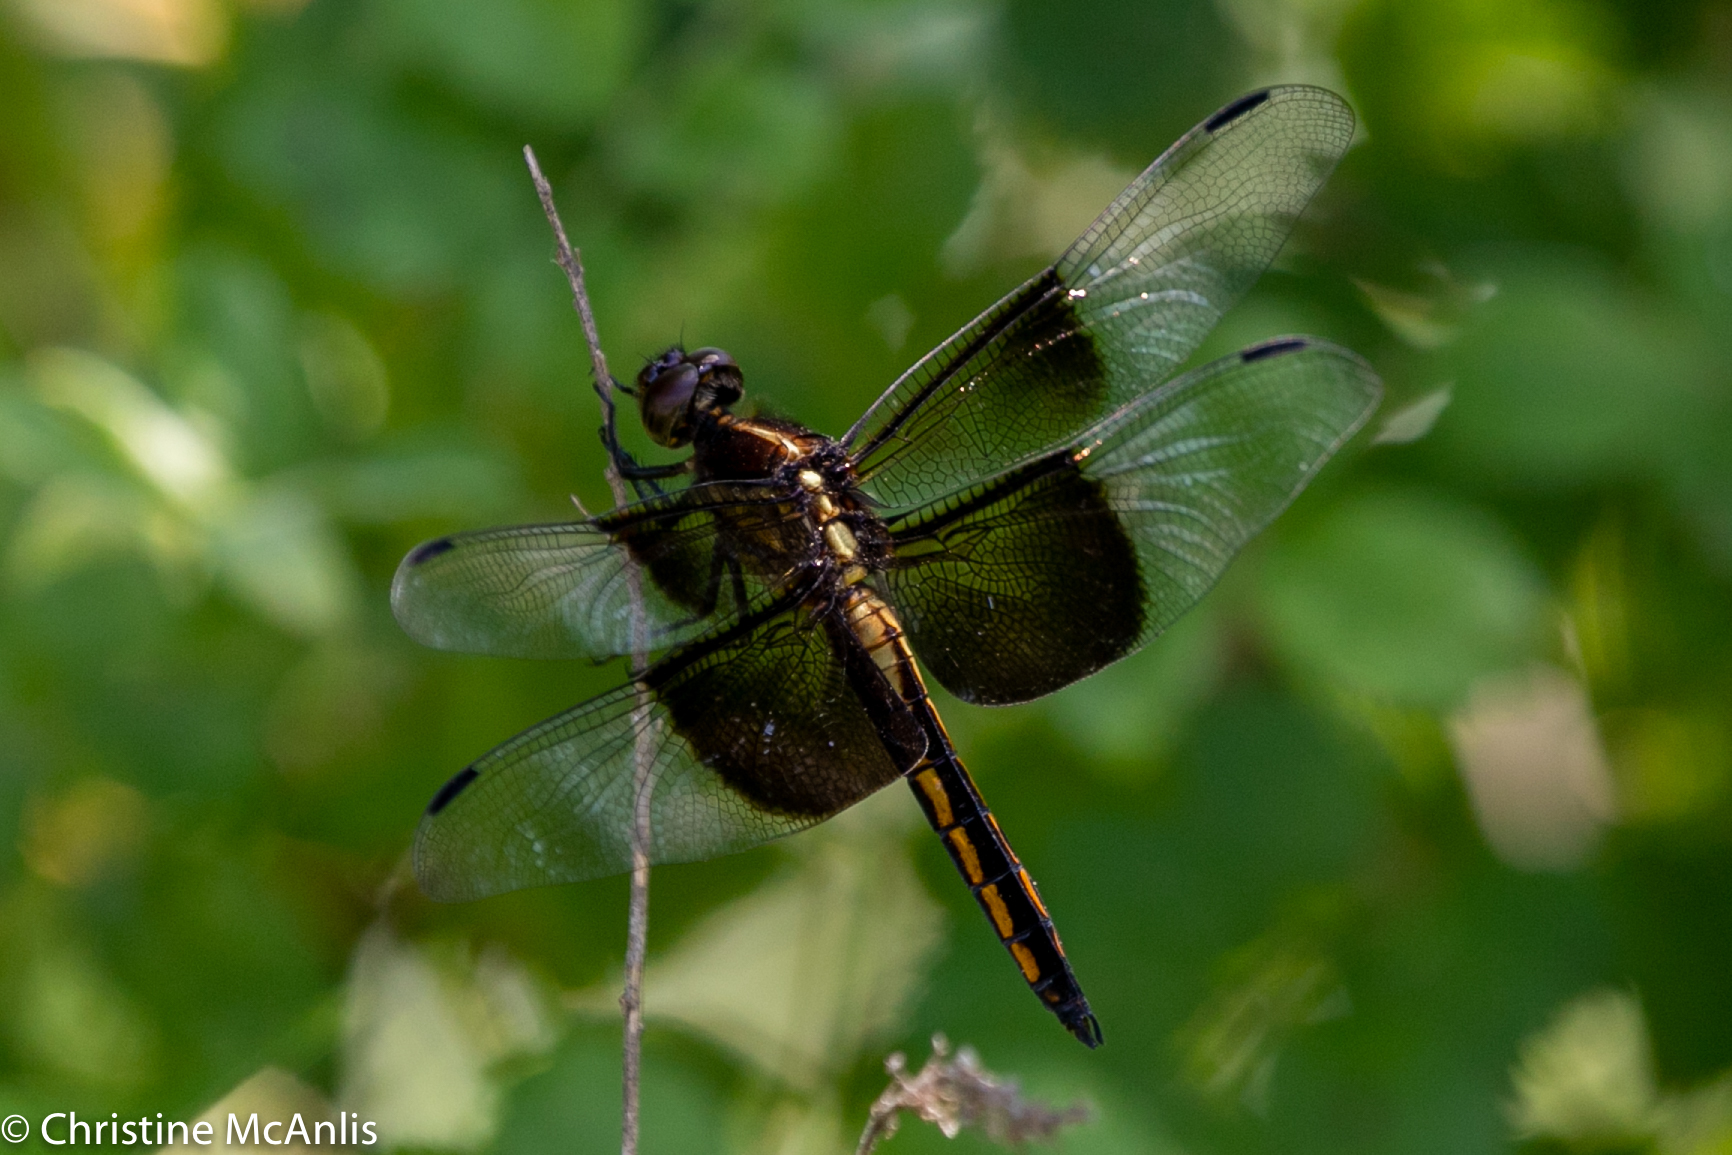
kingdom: Animalia
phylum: Arthropoda
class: Insecta
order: Odonata
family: Libellulidae
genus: Libellula
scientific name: Libellula luctuosa
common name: Widow skimmer
